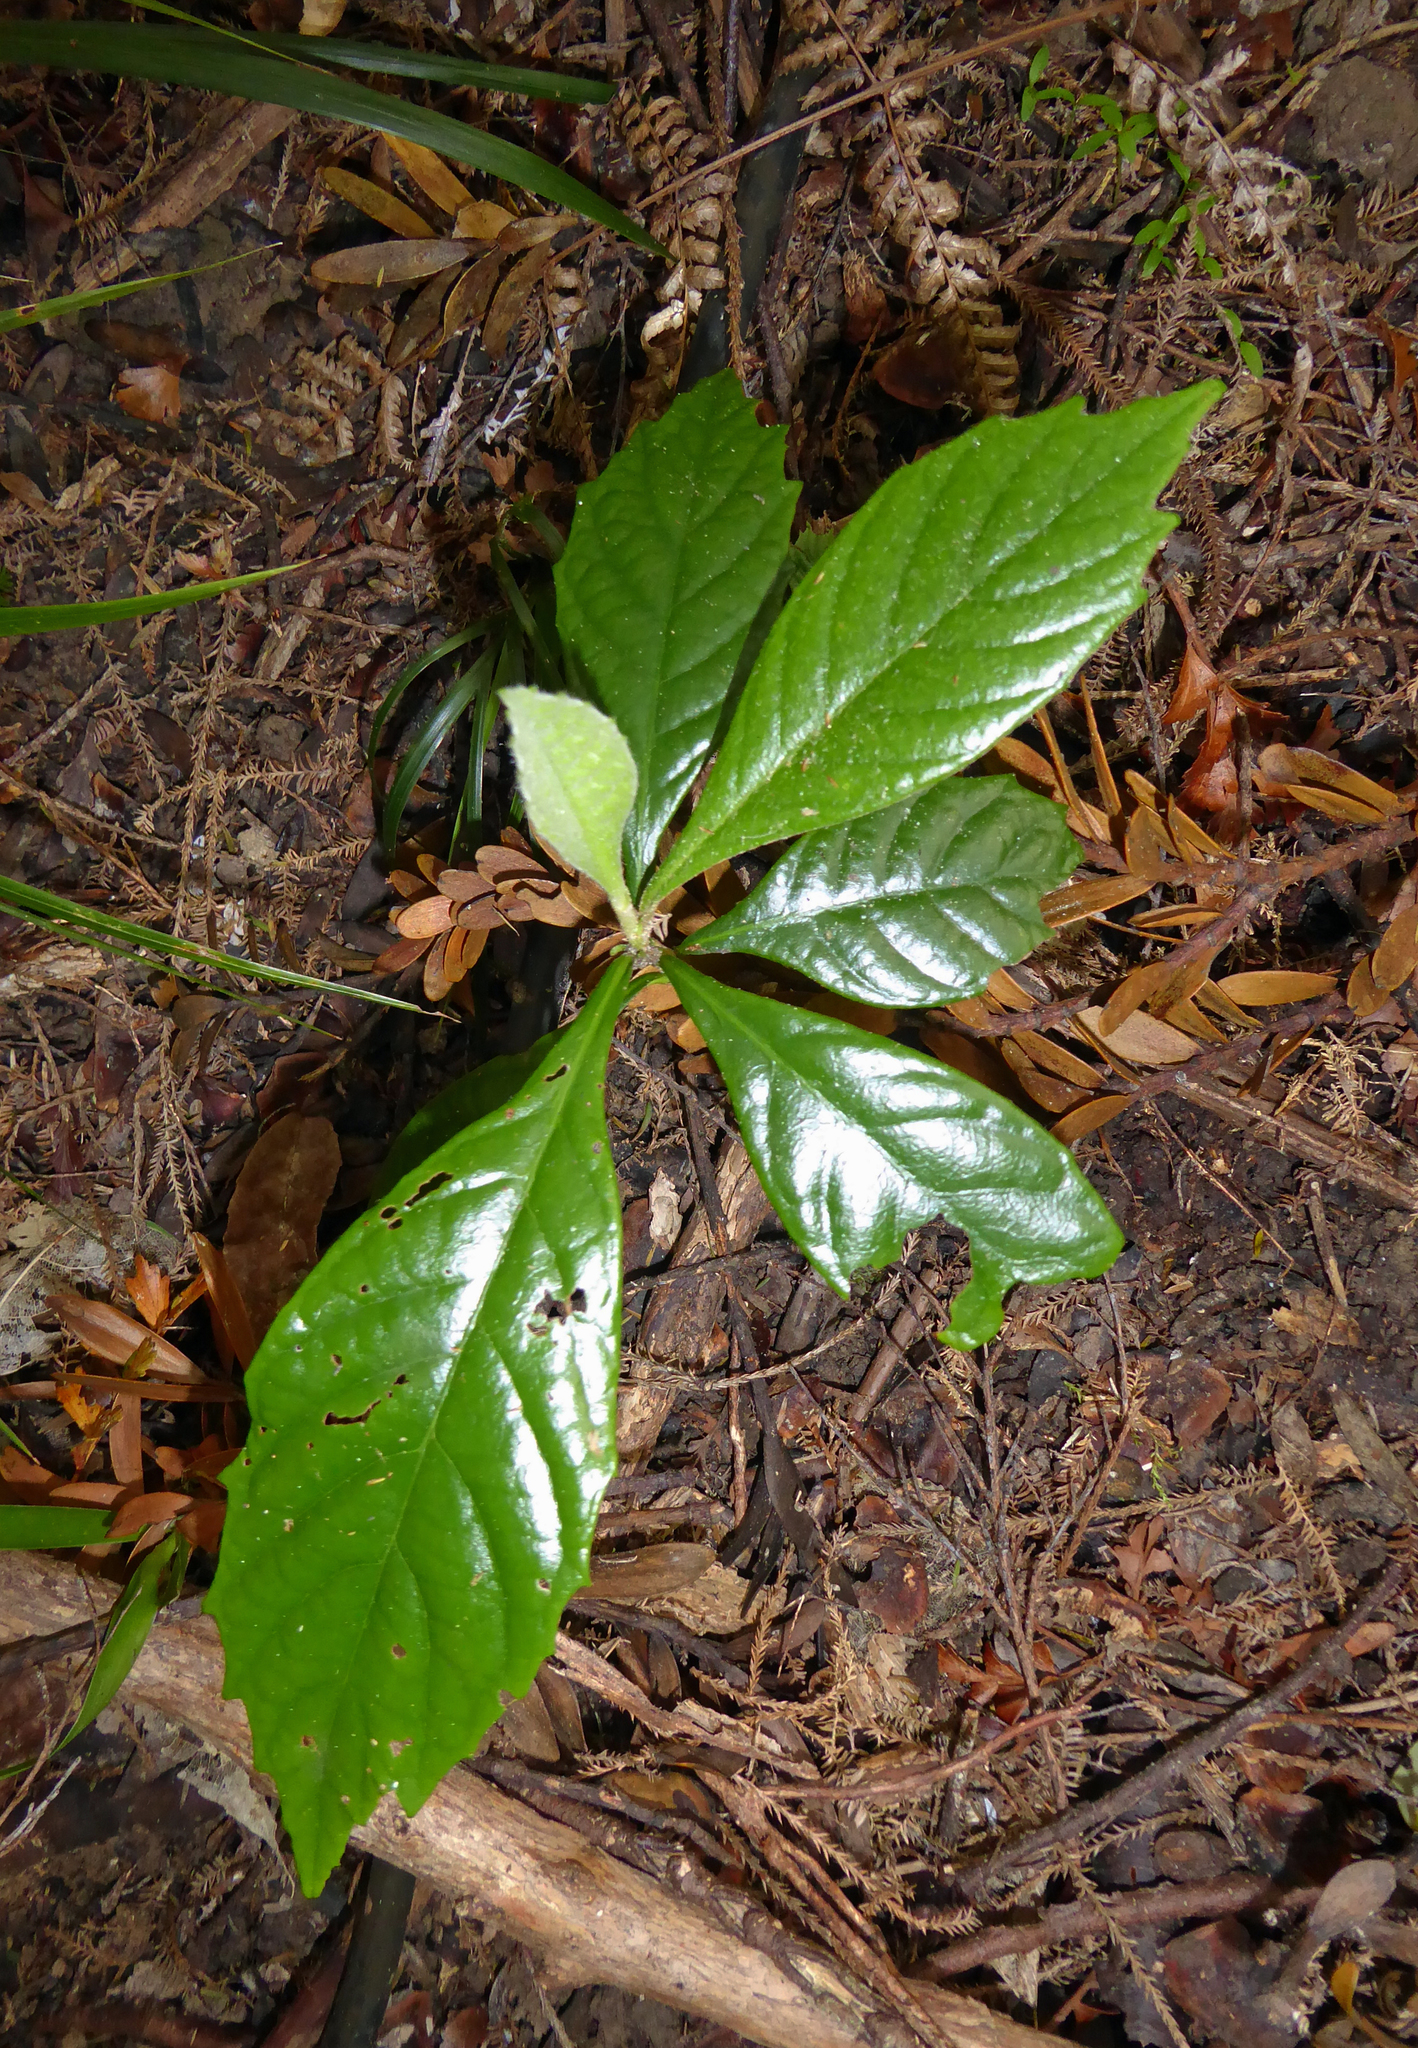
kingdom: Plantae
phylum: Tracheophyta
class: Magnoliopsida
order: Rosales
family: Rosaceae
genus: Rhaphiolepis
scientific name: Rhaphiolepis bibas
